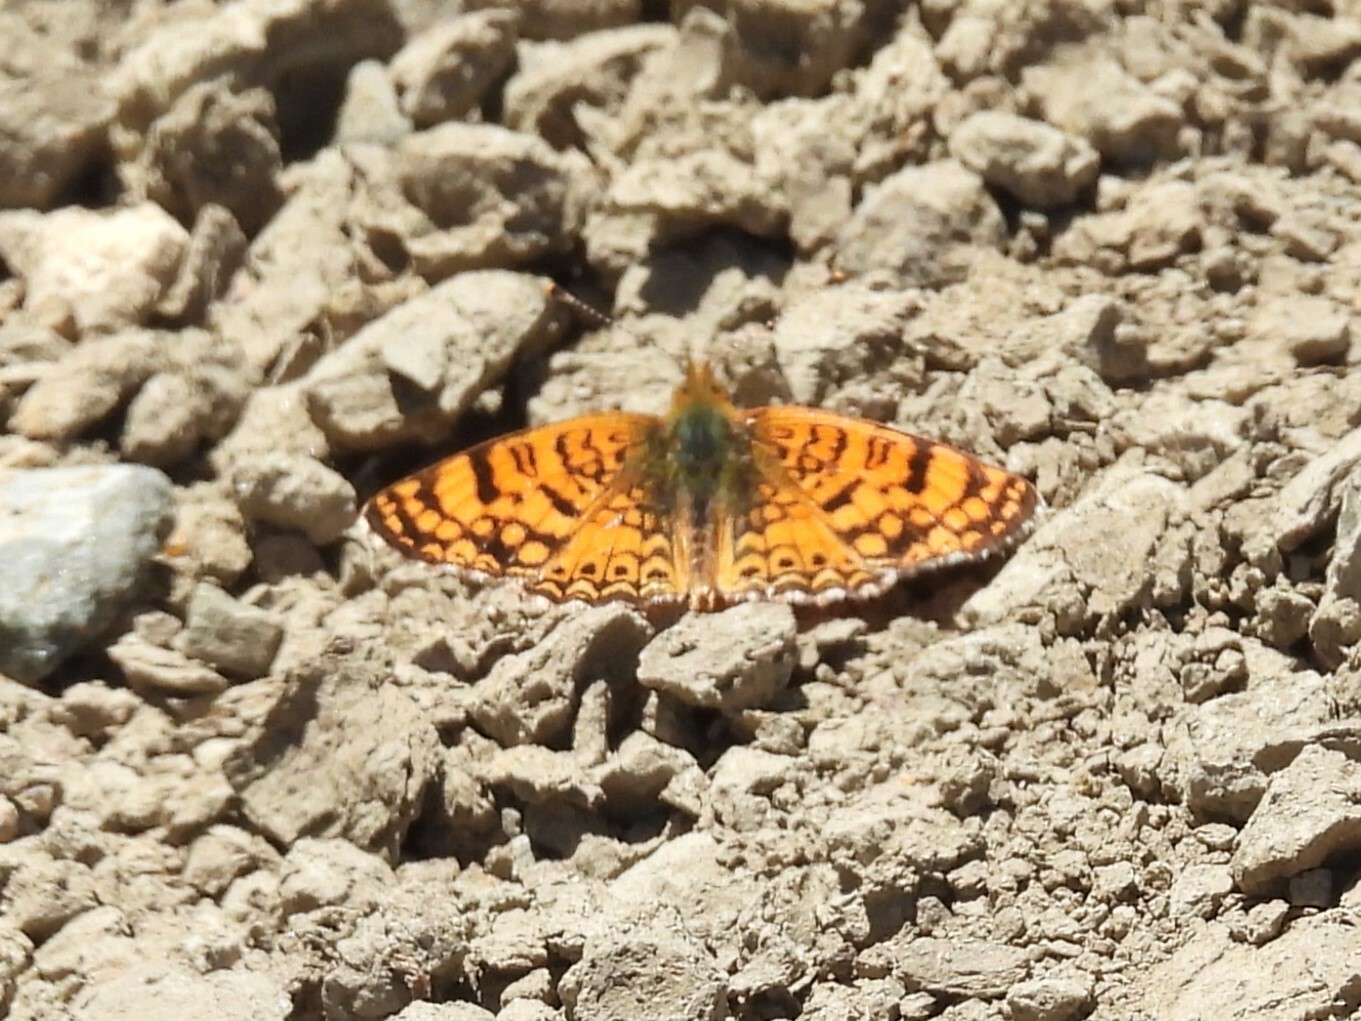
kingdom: Animalia
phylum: Arthropoda
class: Insecta
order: Lepidoptera
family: Nymphalidae
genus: Eresia
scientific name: Eresia aveyrona
